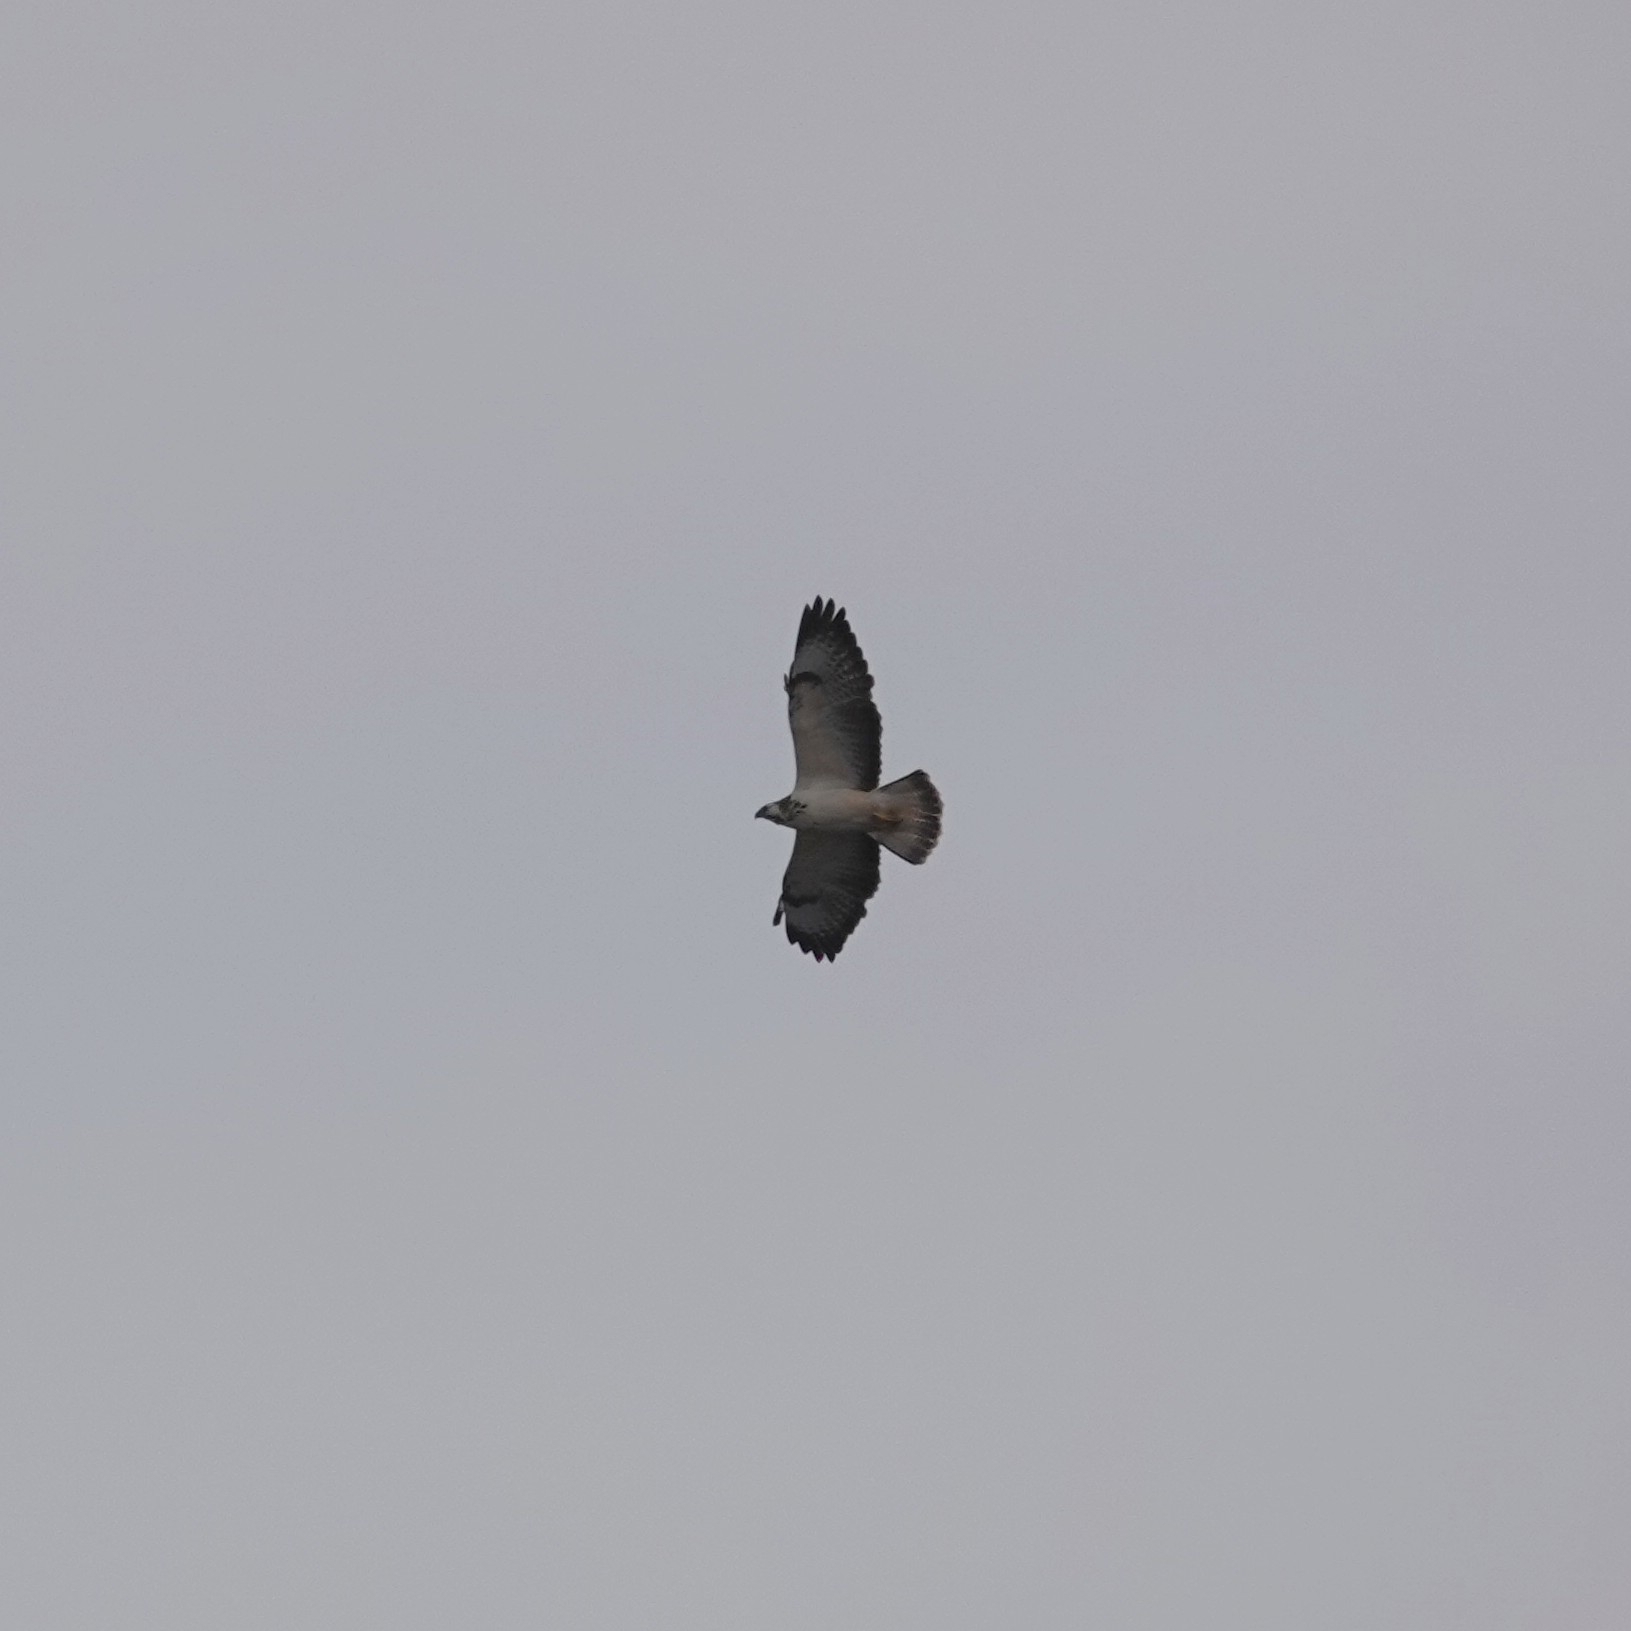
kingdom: Animalia
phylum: Chordata
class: Aves
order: Accipitriformes
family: Accipitridae
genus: Buteo
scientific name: Buteo buteo
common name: Common buzzard
